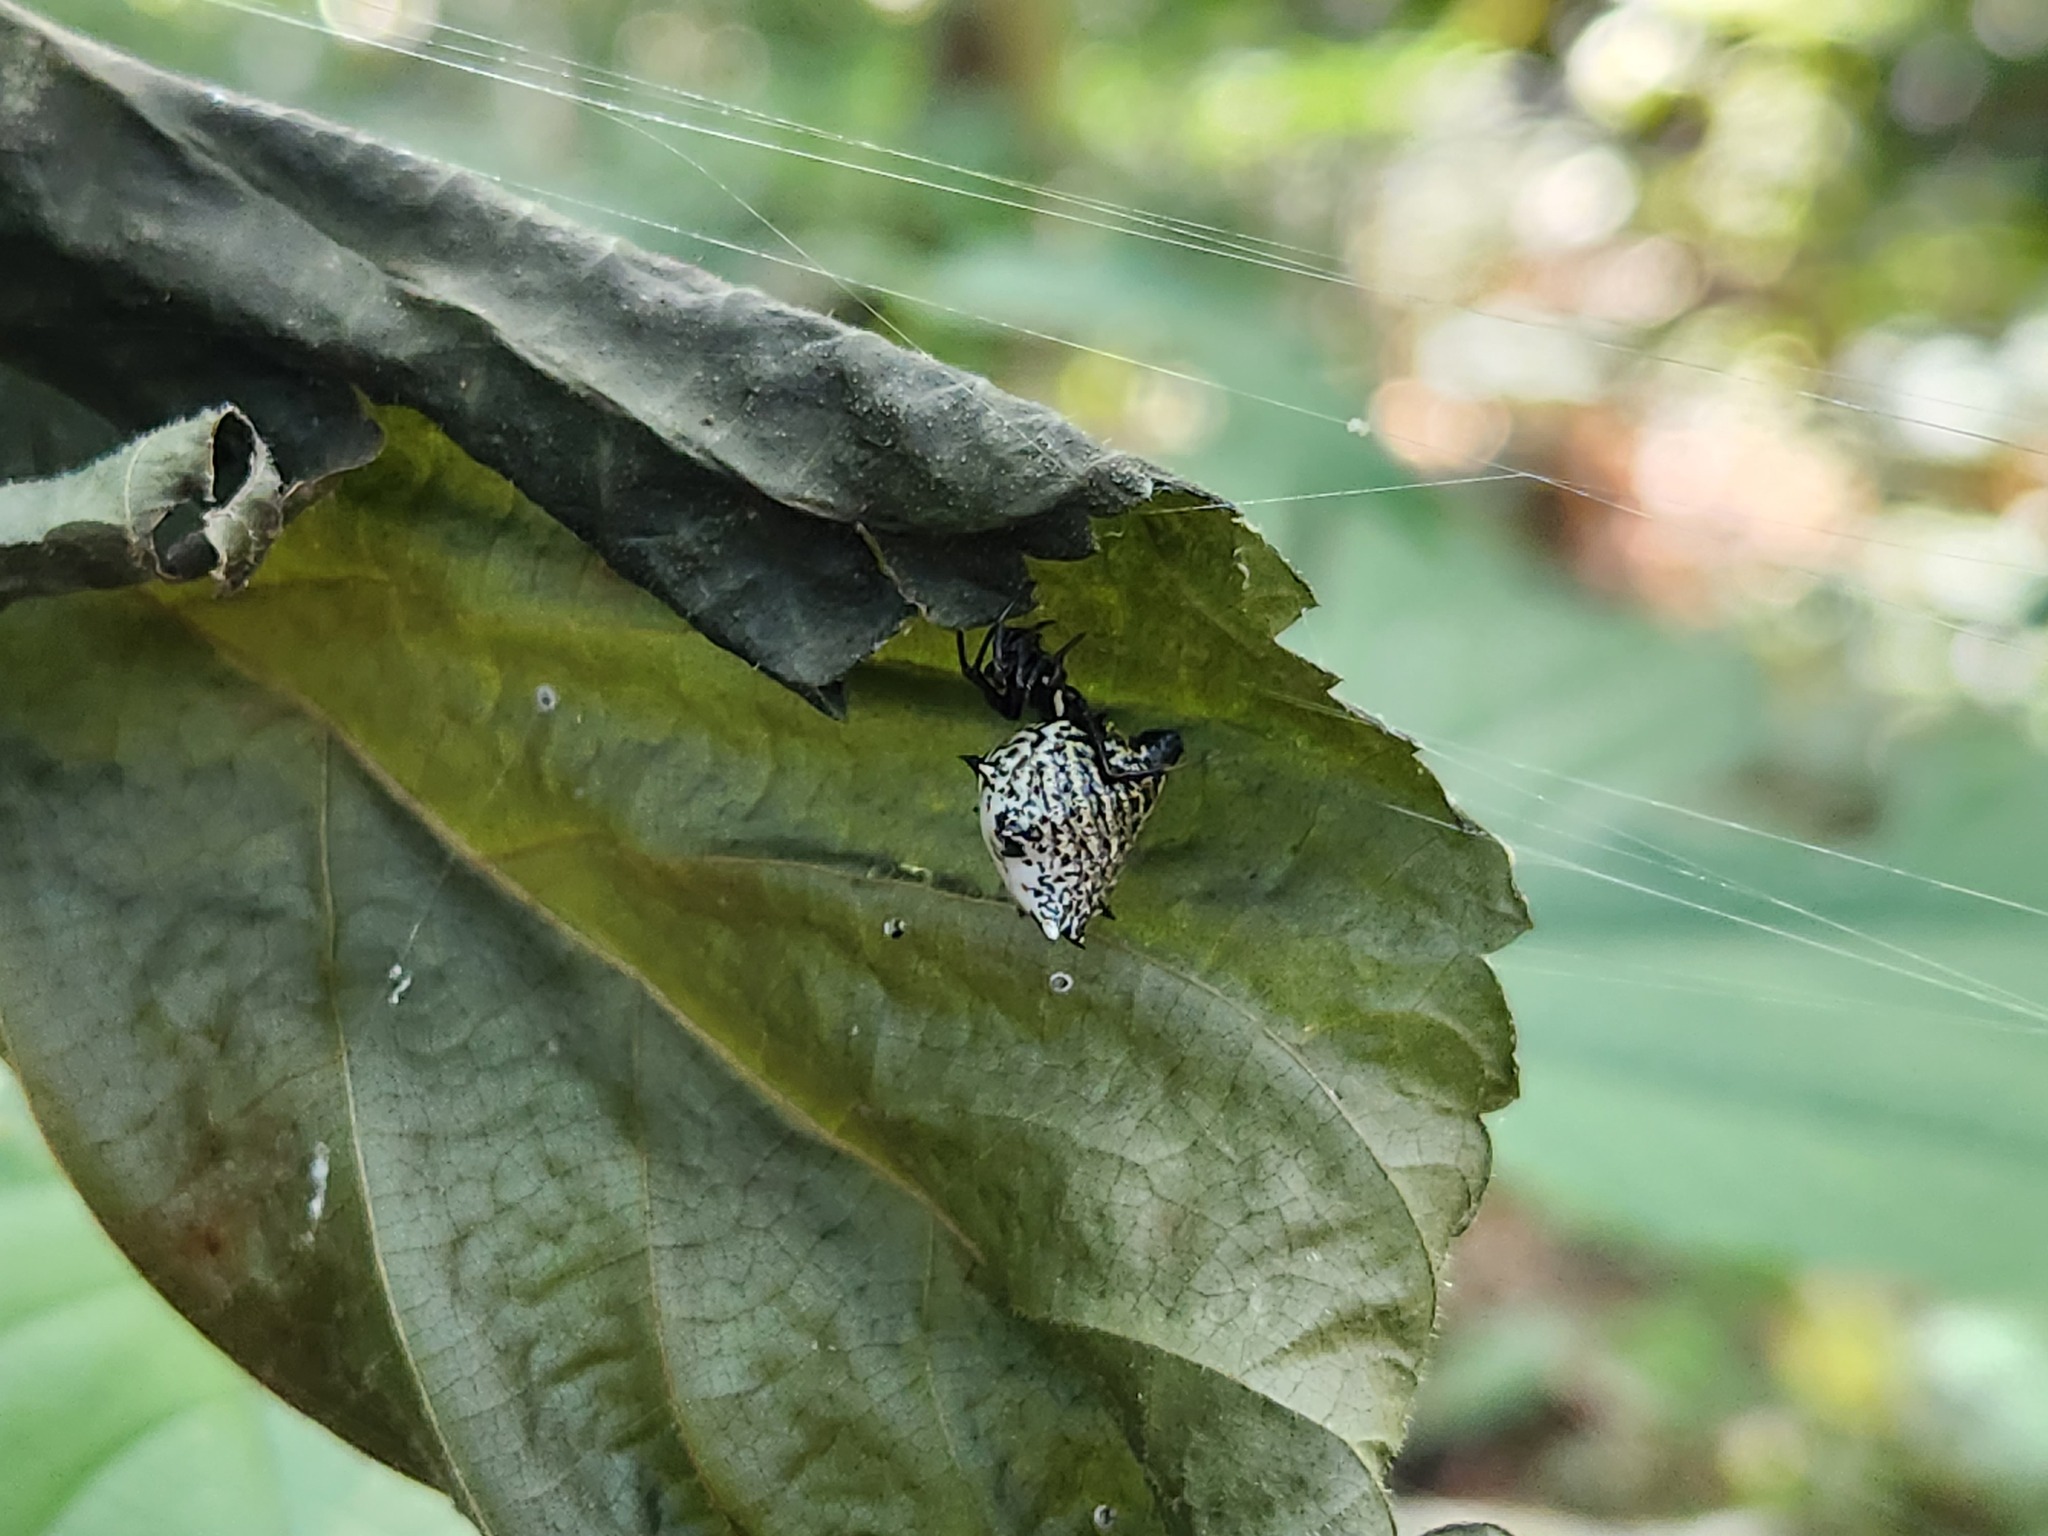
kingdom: Animalia
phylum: Arthropoda
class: Arachnida
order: Araneae
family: Araneidae
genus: Micrathena
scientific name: Micrathena gracilis
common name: Orb weavers
